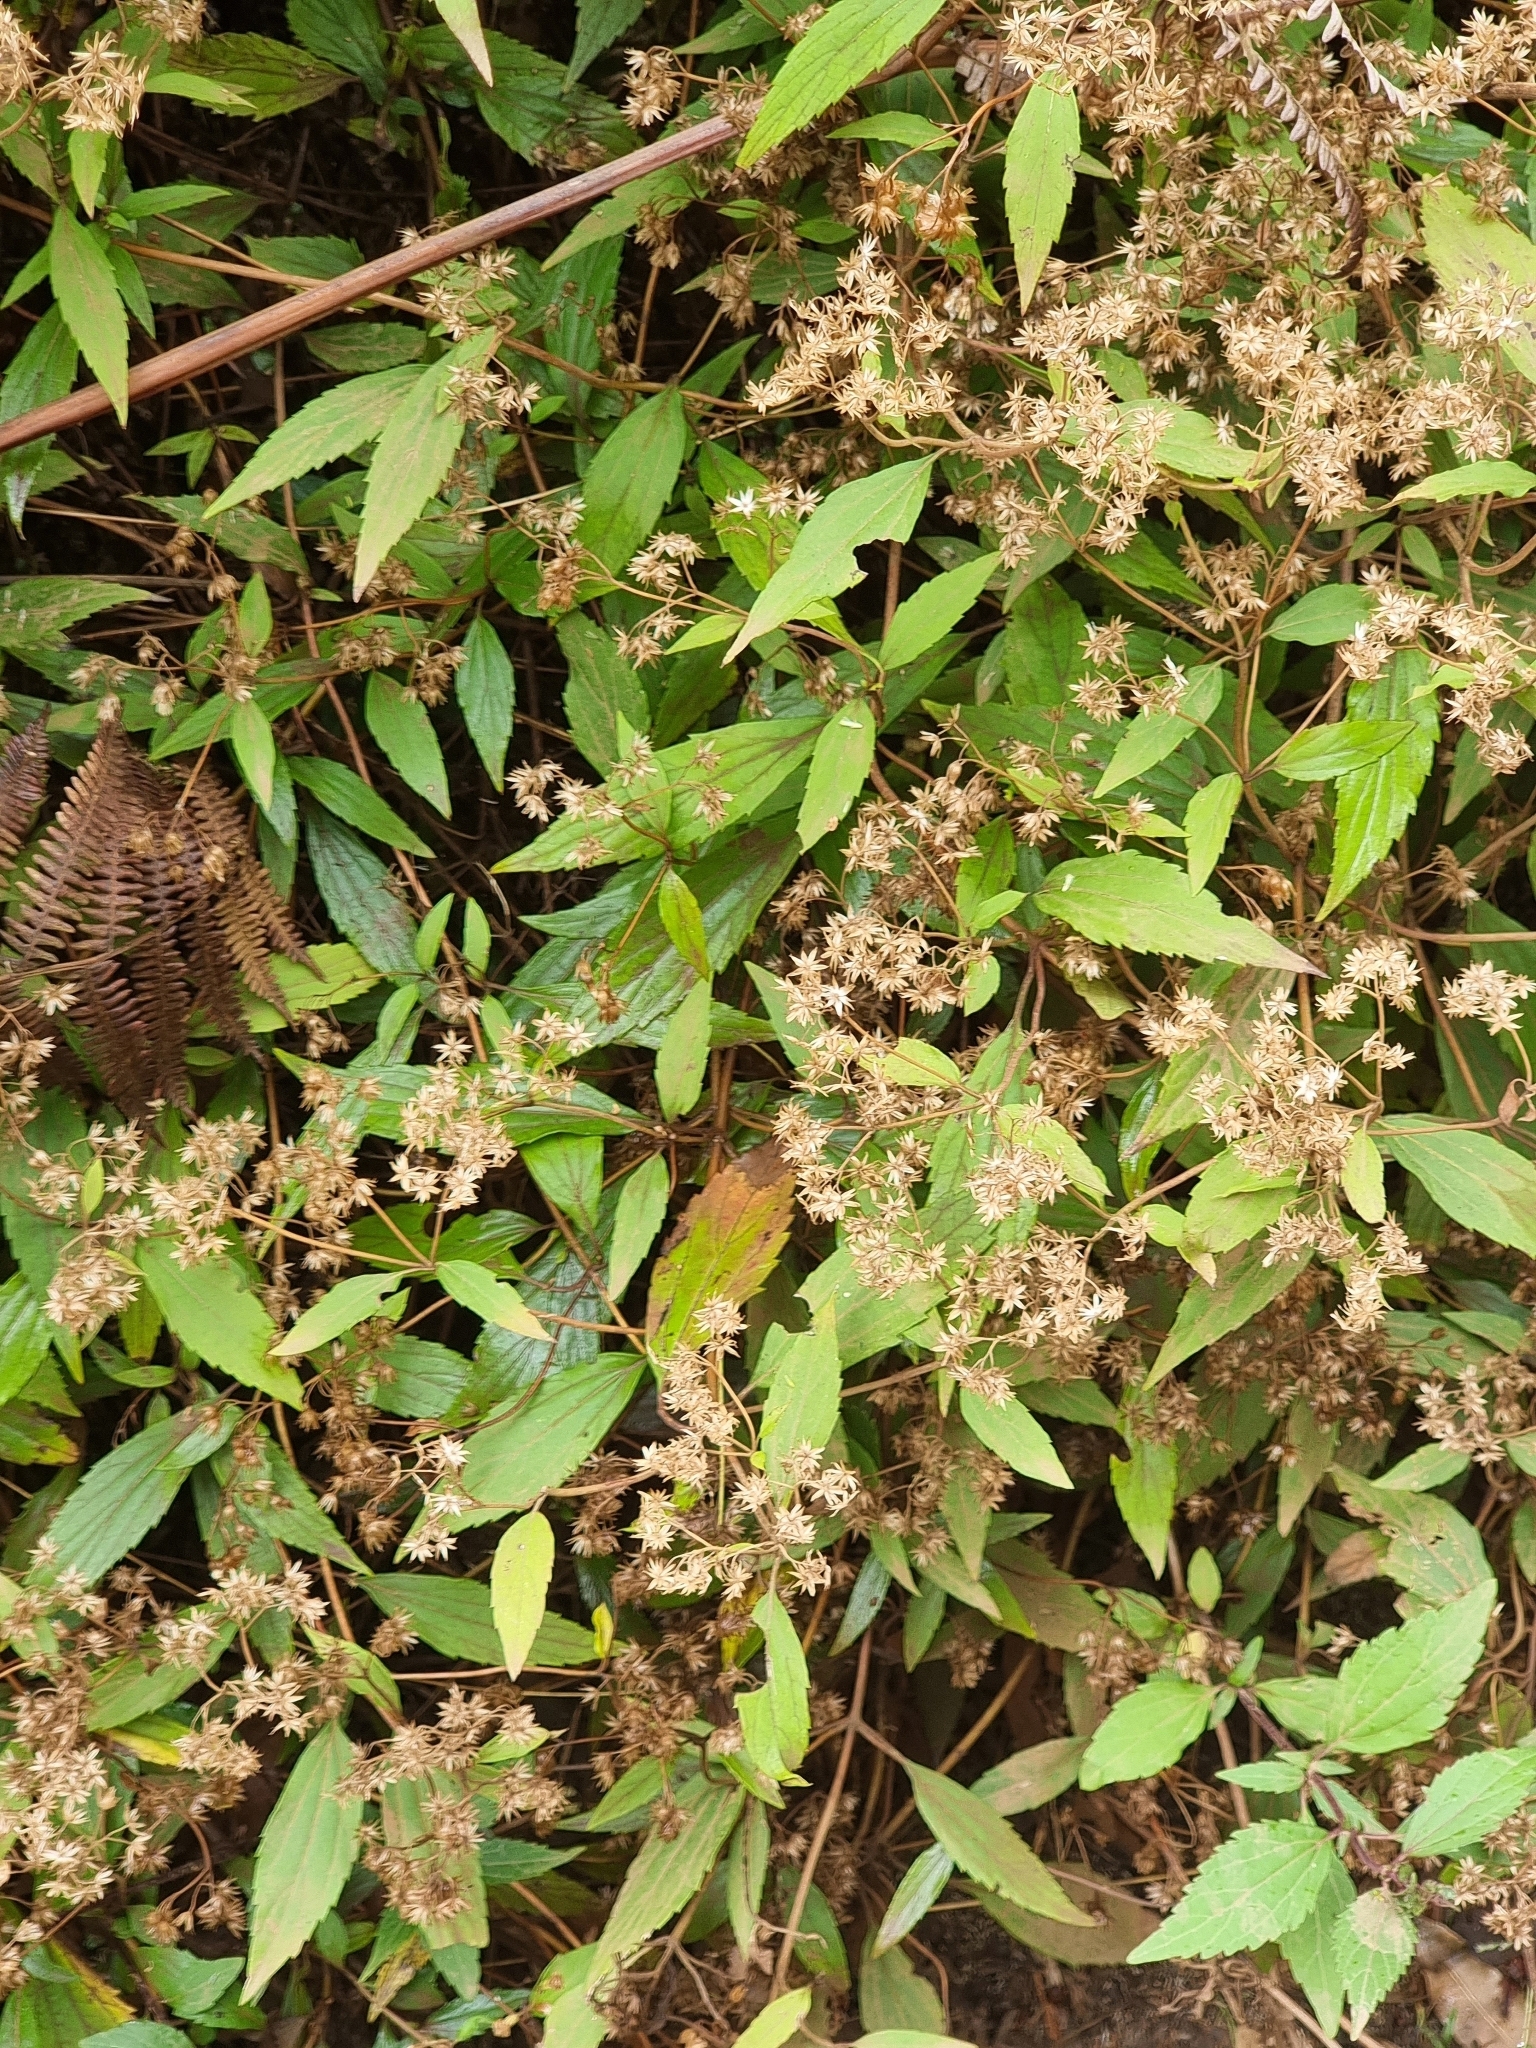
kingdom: Plantae
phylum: Tracheophyta
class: Magnoliopsida
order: Asterales
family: Asteraceae
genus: Ageratina
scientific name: Ageratina riparia
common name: Creeping croftonweed
